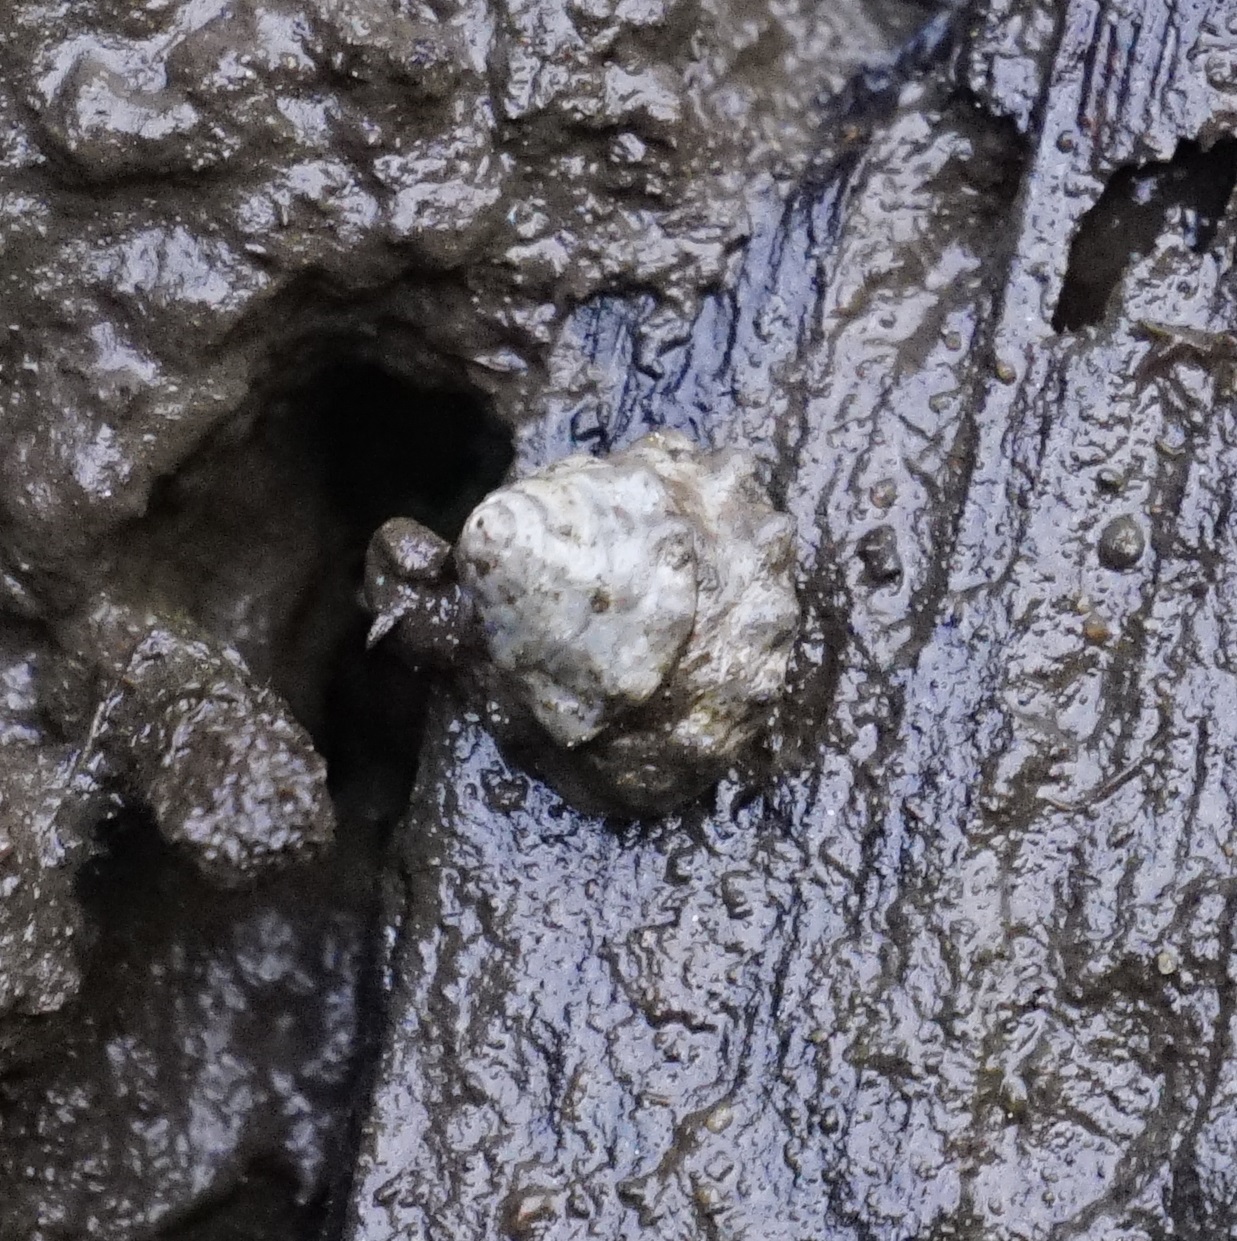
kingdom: Animalia
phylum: Mollusca
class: Gastropoda
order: Littorinimorpha
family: Littorinidae
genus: Bembicium
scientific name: Bembicium auratum
